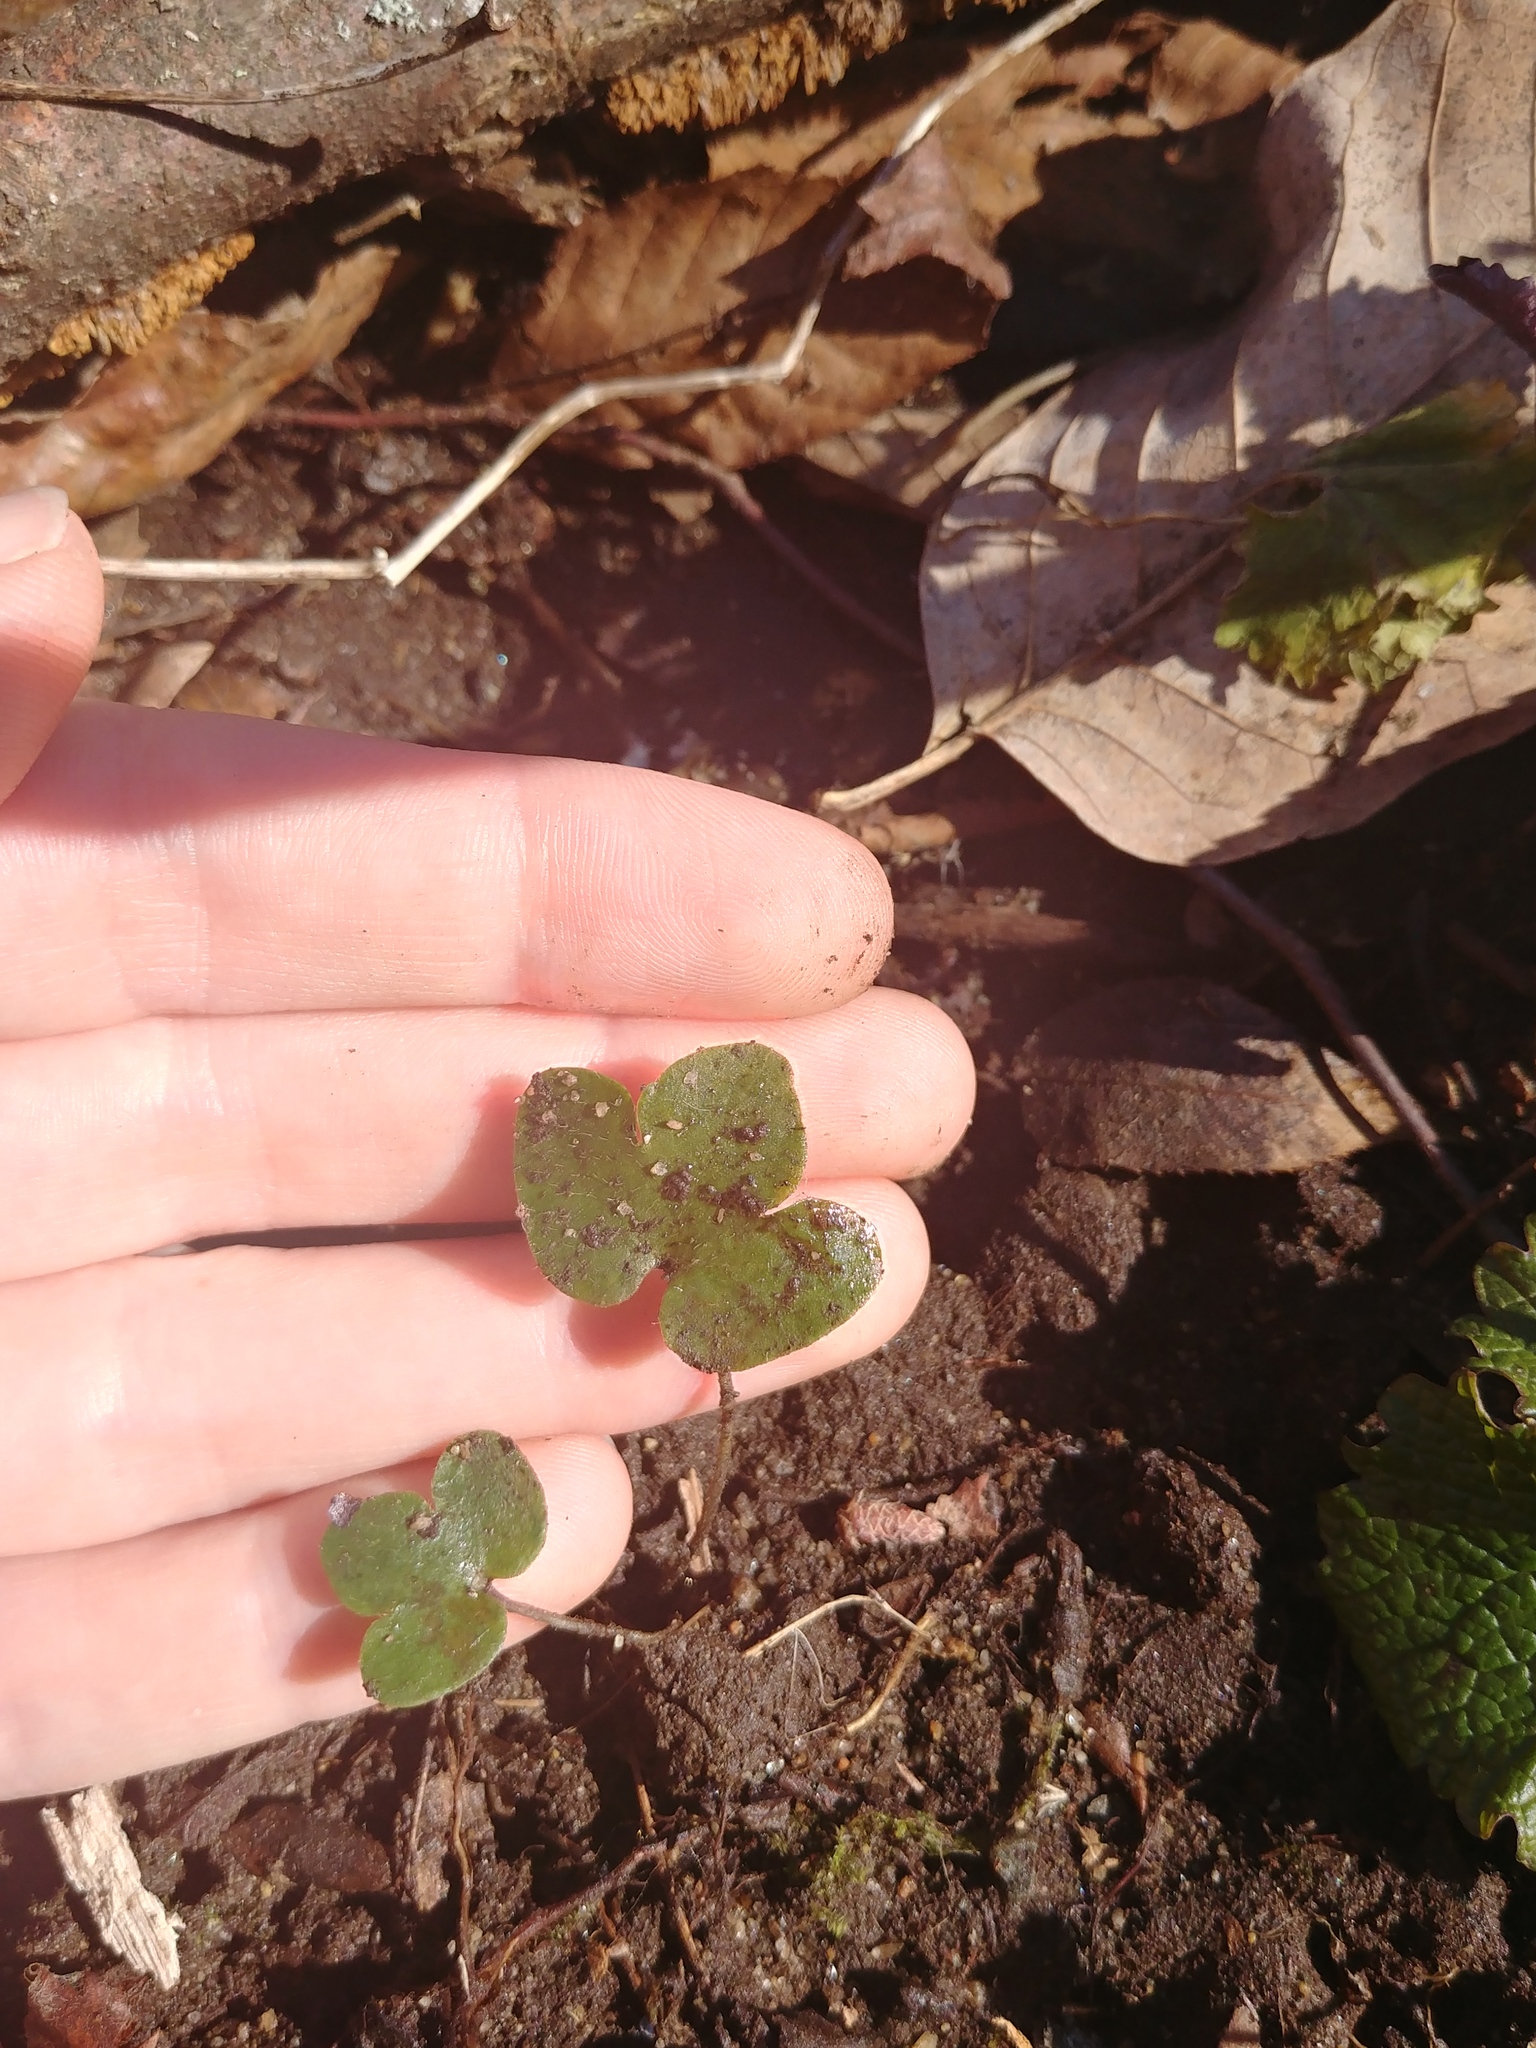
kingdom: Plantae
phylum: Tracheophyta
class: Magnoliopsida
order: Ranunculales
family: Ranunculaceae
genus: Hepatica
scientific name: Hepatica americana
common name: American hepatica
